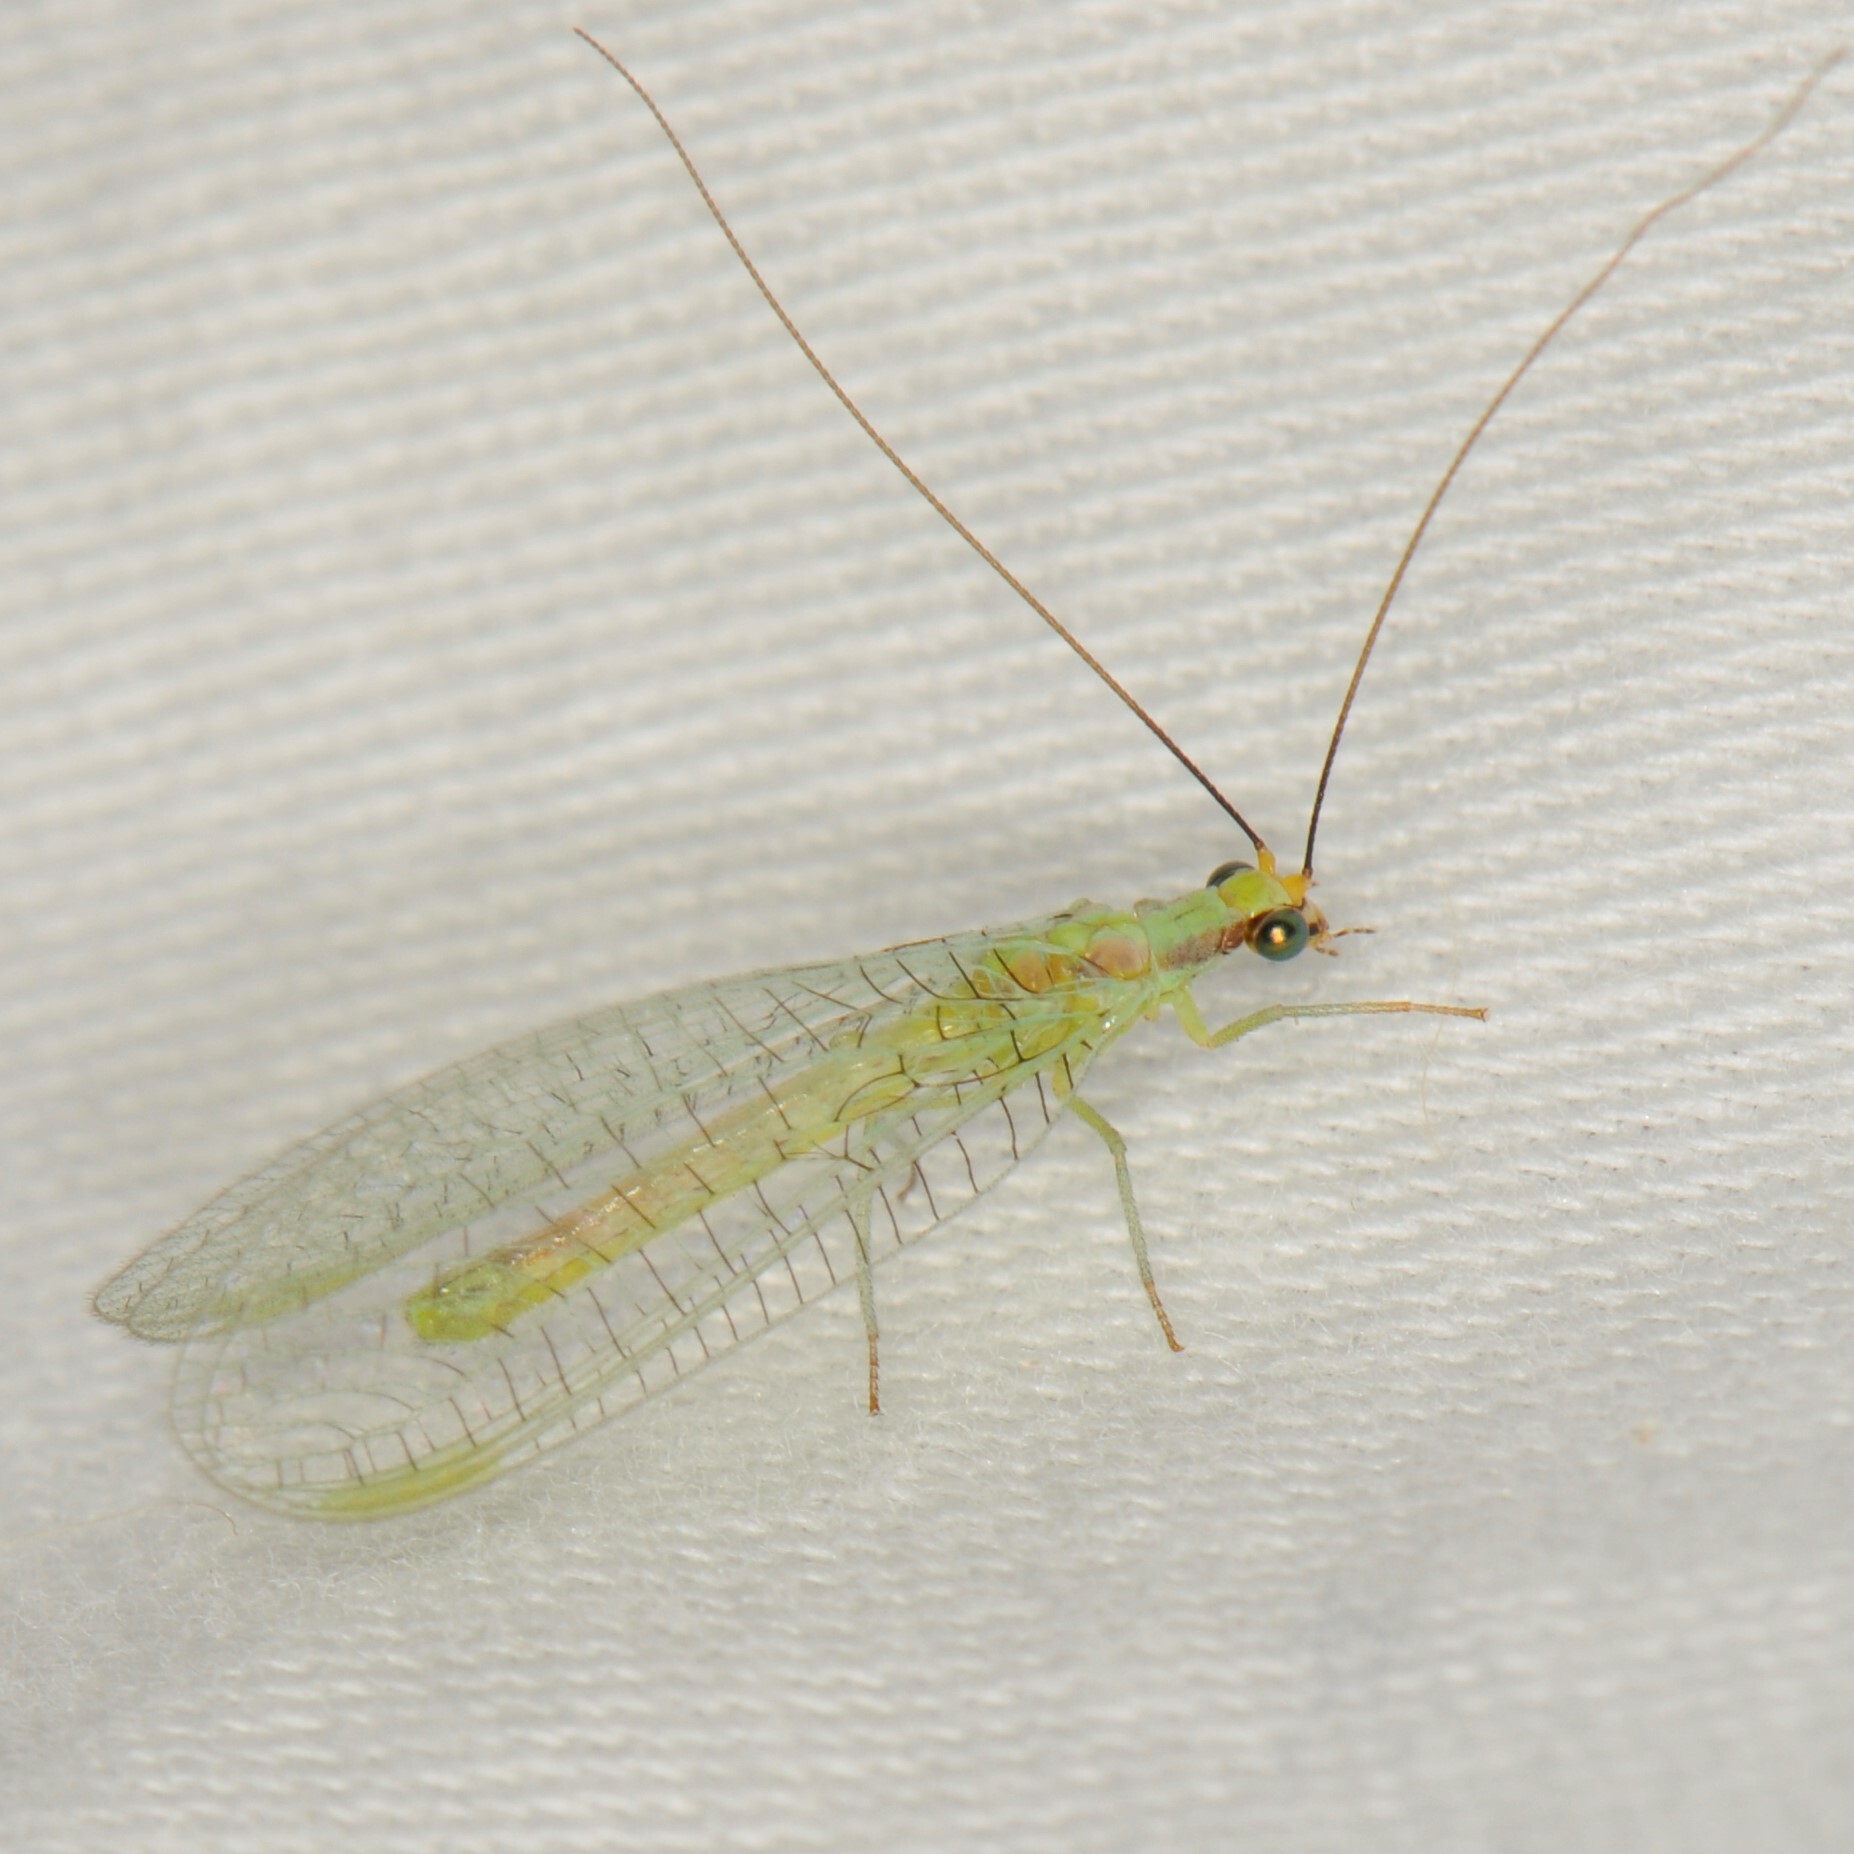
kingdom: Animalia
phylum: Arthropoda
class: Insecta
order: Neuroptera
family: Chrysopidae
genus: Chrysopa
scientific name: Chrysopa coloradensis
